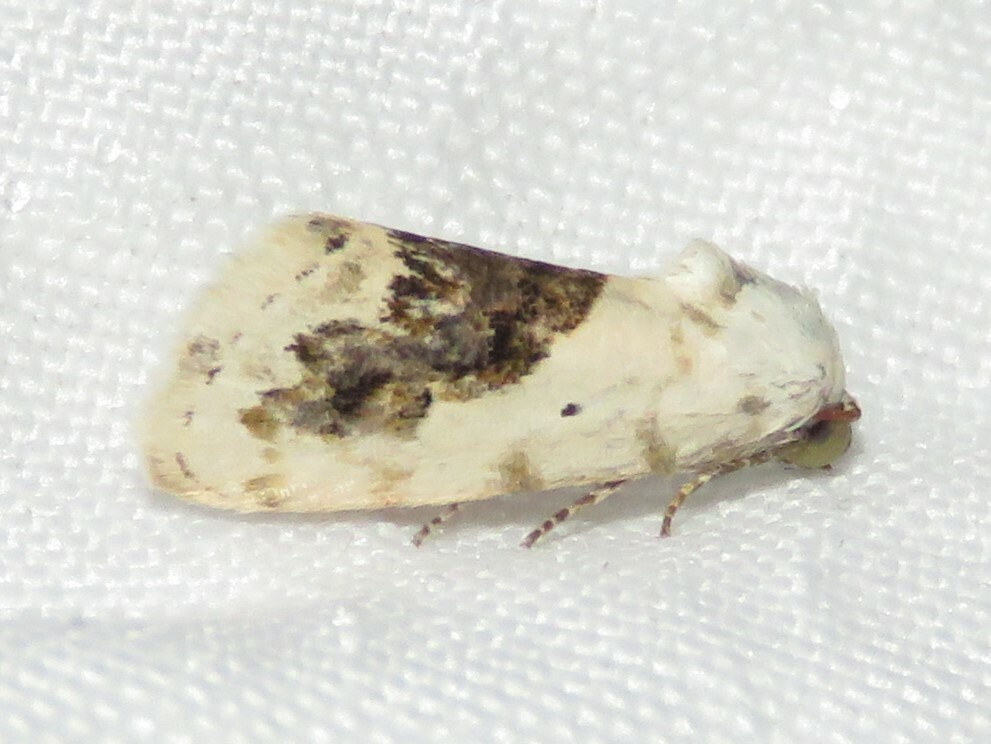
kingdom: Animalia
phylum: Arthropoda
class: Insecta
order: Lepidoptera
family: Noctuidae
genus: Acontia
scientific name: Acontia erastrioides
